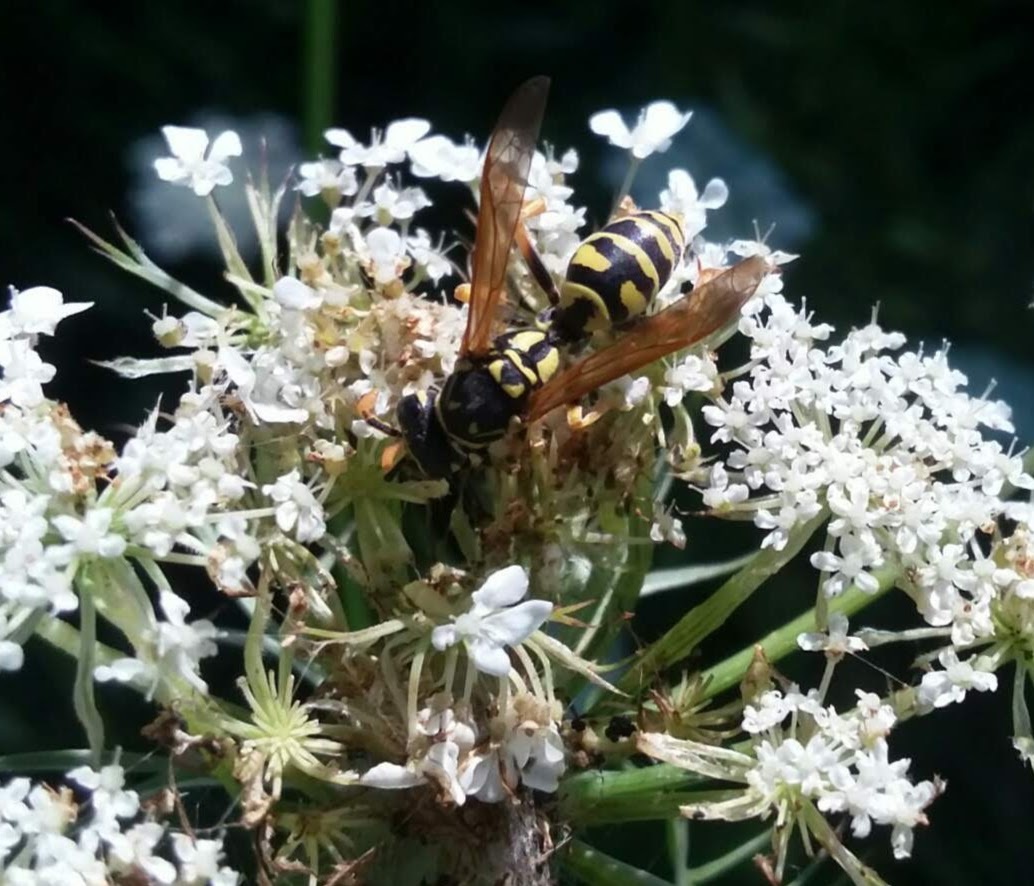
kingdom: Animalia
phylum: Arthropoda
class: Insecta
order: Hymenoptera
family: Eumenidae
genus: Polistes
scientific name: Polistes dominula
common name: Paper wasp
